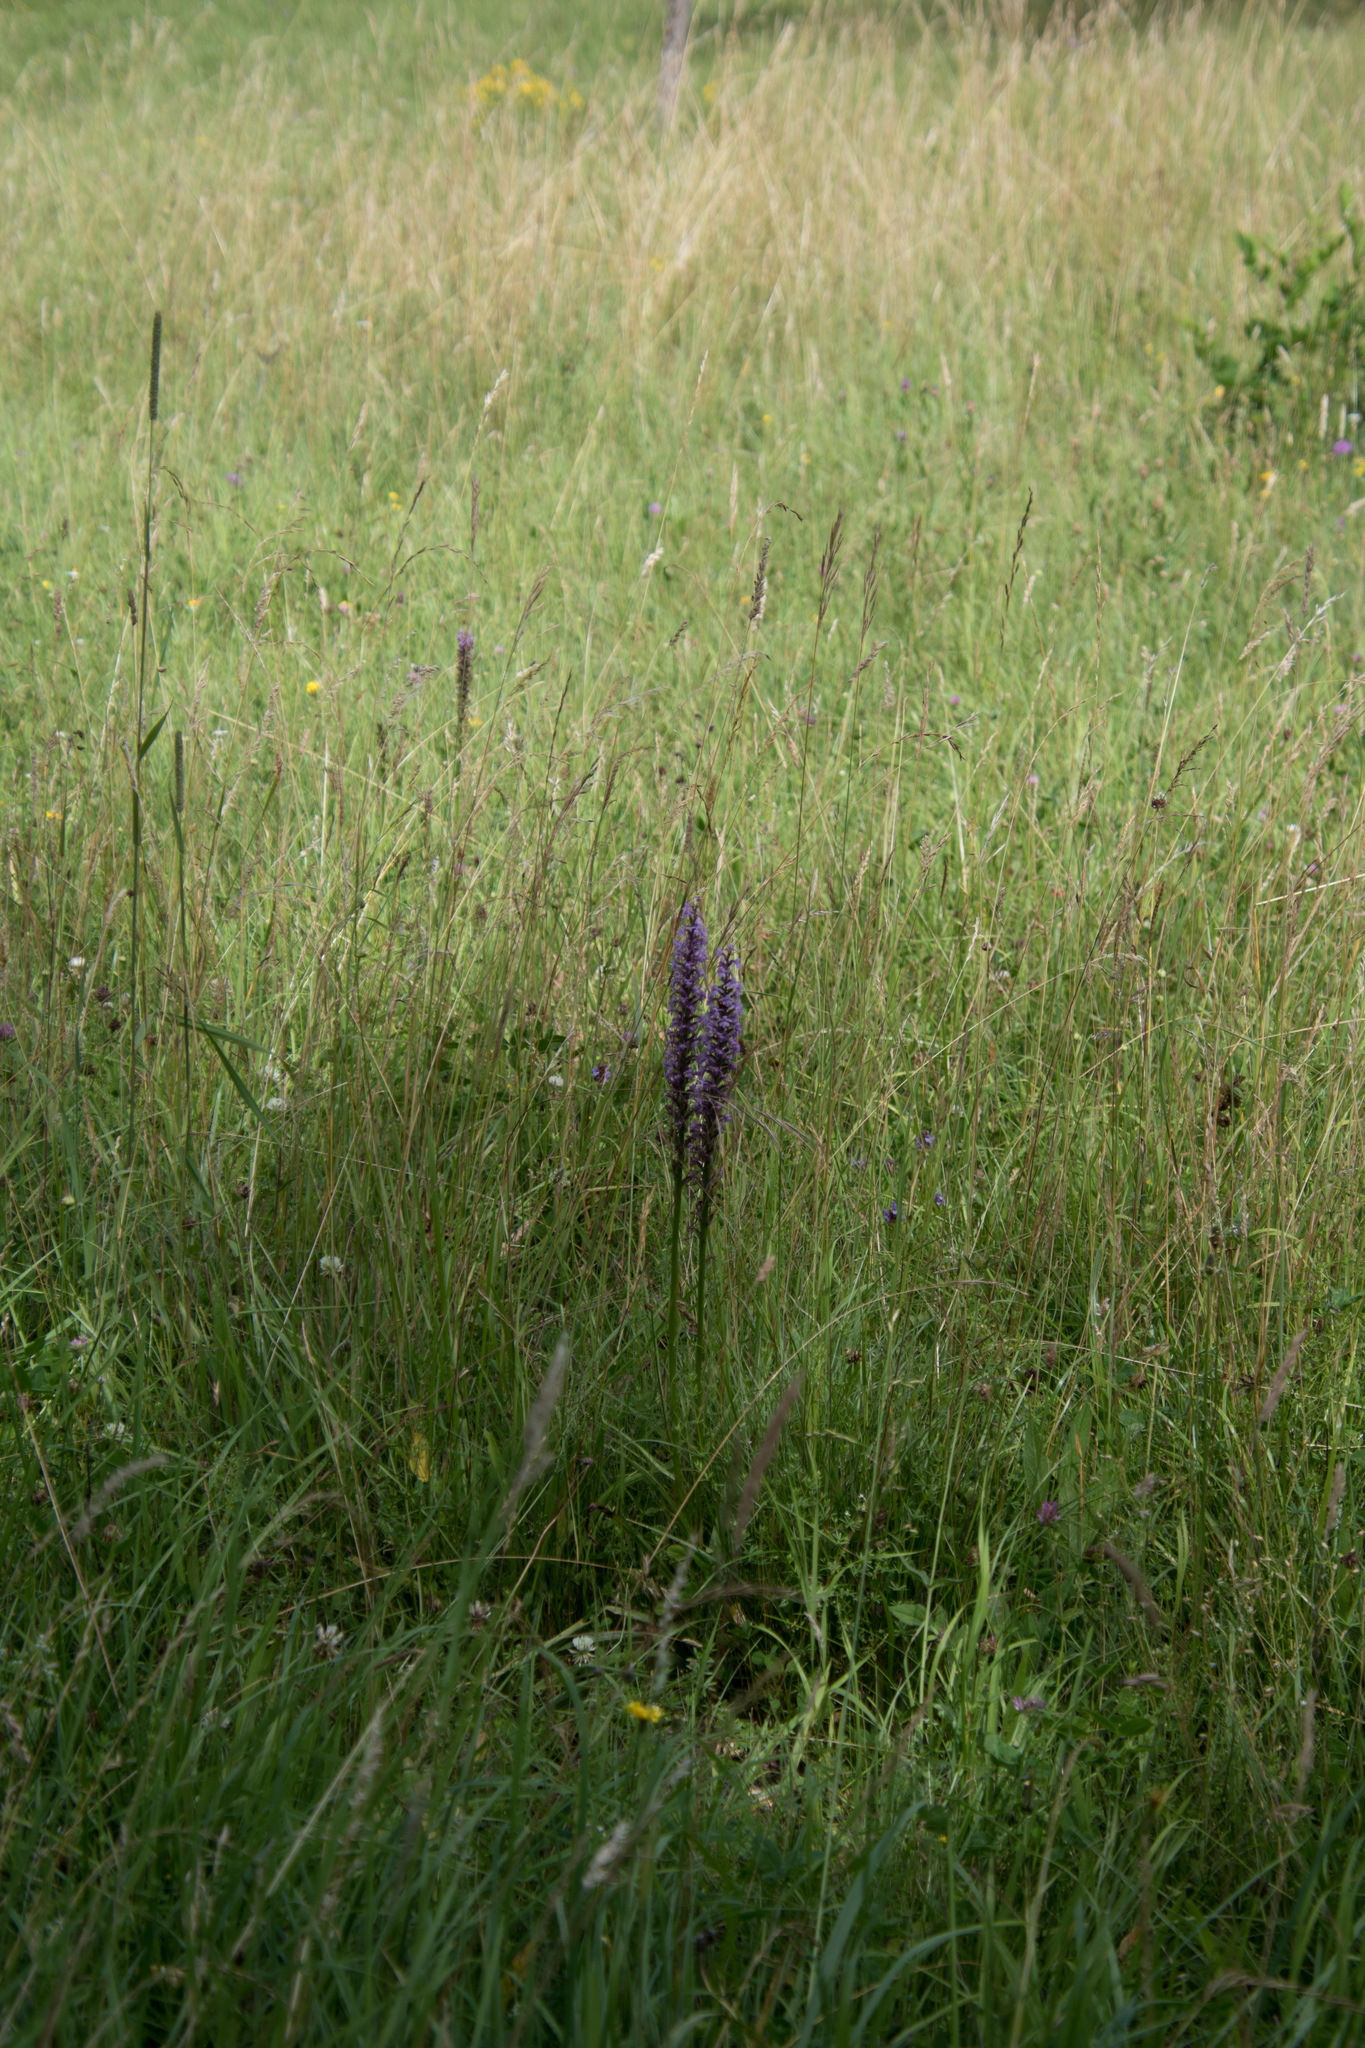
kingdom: Plantae
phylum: Tracheophyta
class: Liliopsida
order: Asparagales
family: Orchidaceae
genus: Gymnadenia
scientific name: Gymnadenia conopsea
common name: Fragrant orchid
